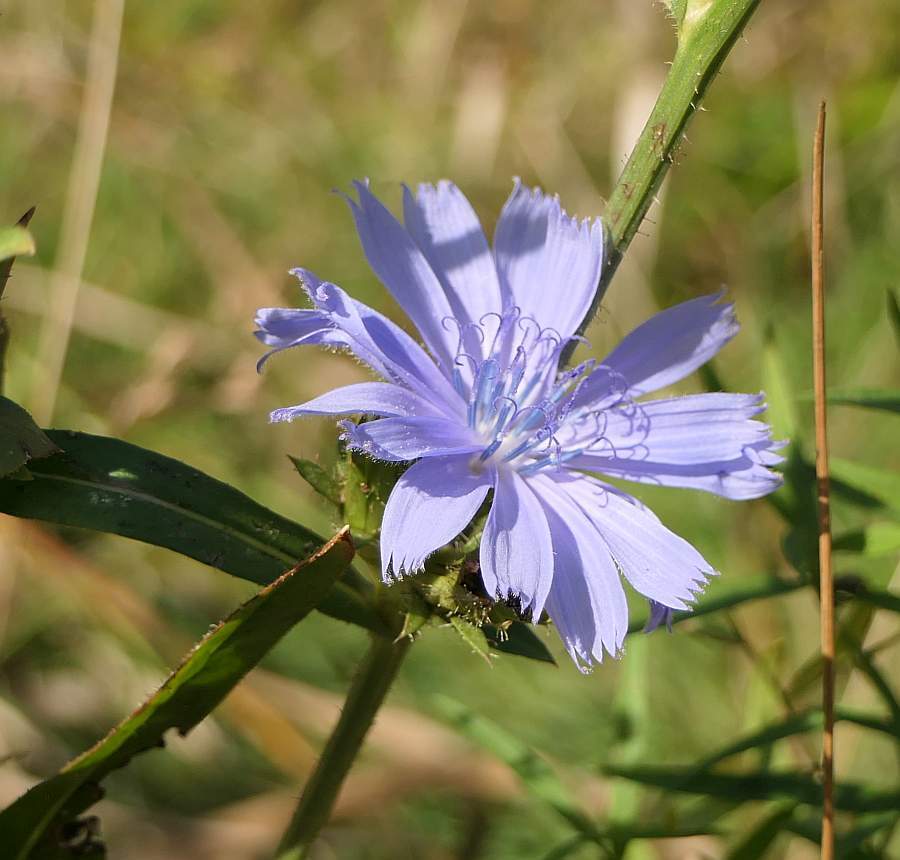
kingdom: Plantae
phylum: Tracheophyta
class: Magnoliopsida
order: Asterales
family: Asteraceae
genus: Cichorium
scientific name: Cichorium intybus
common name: Chicory
